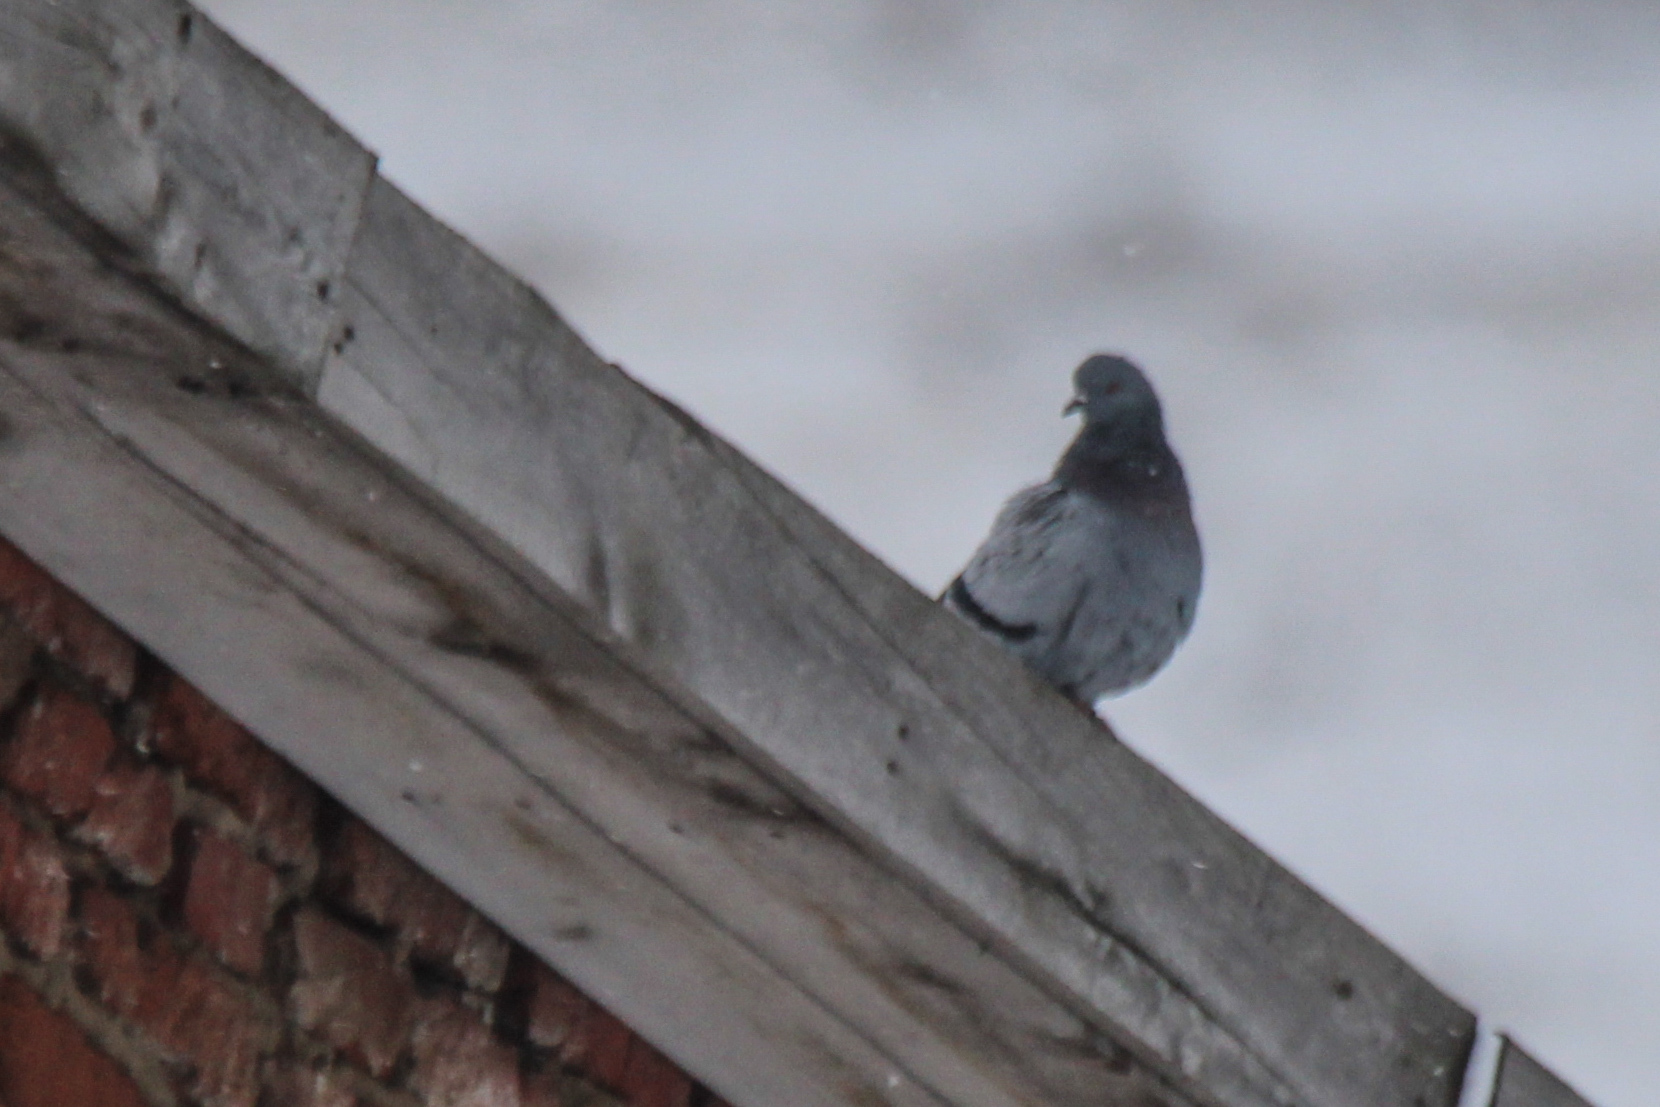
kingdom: Animalia
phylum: Chordata
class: Aves
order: Columbiformes
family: Columbidae
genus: Columba
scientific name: Columba livia
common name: Rock pigeon
